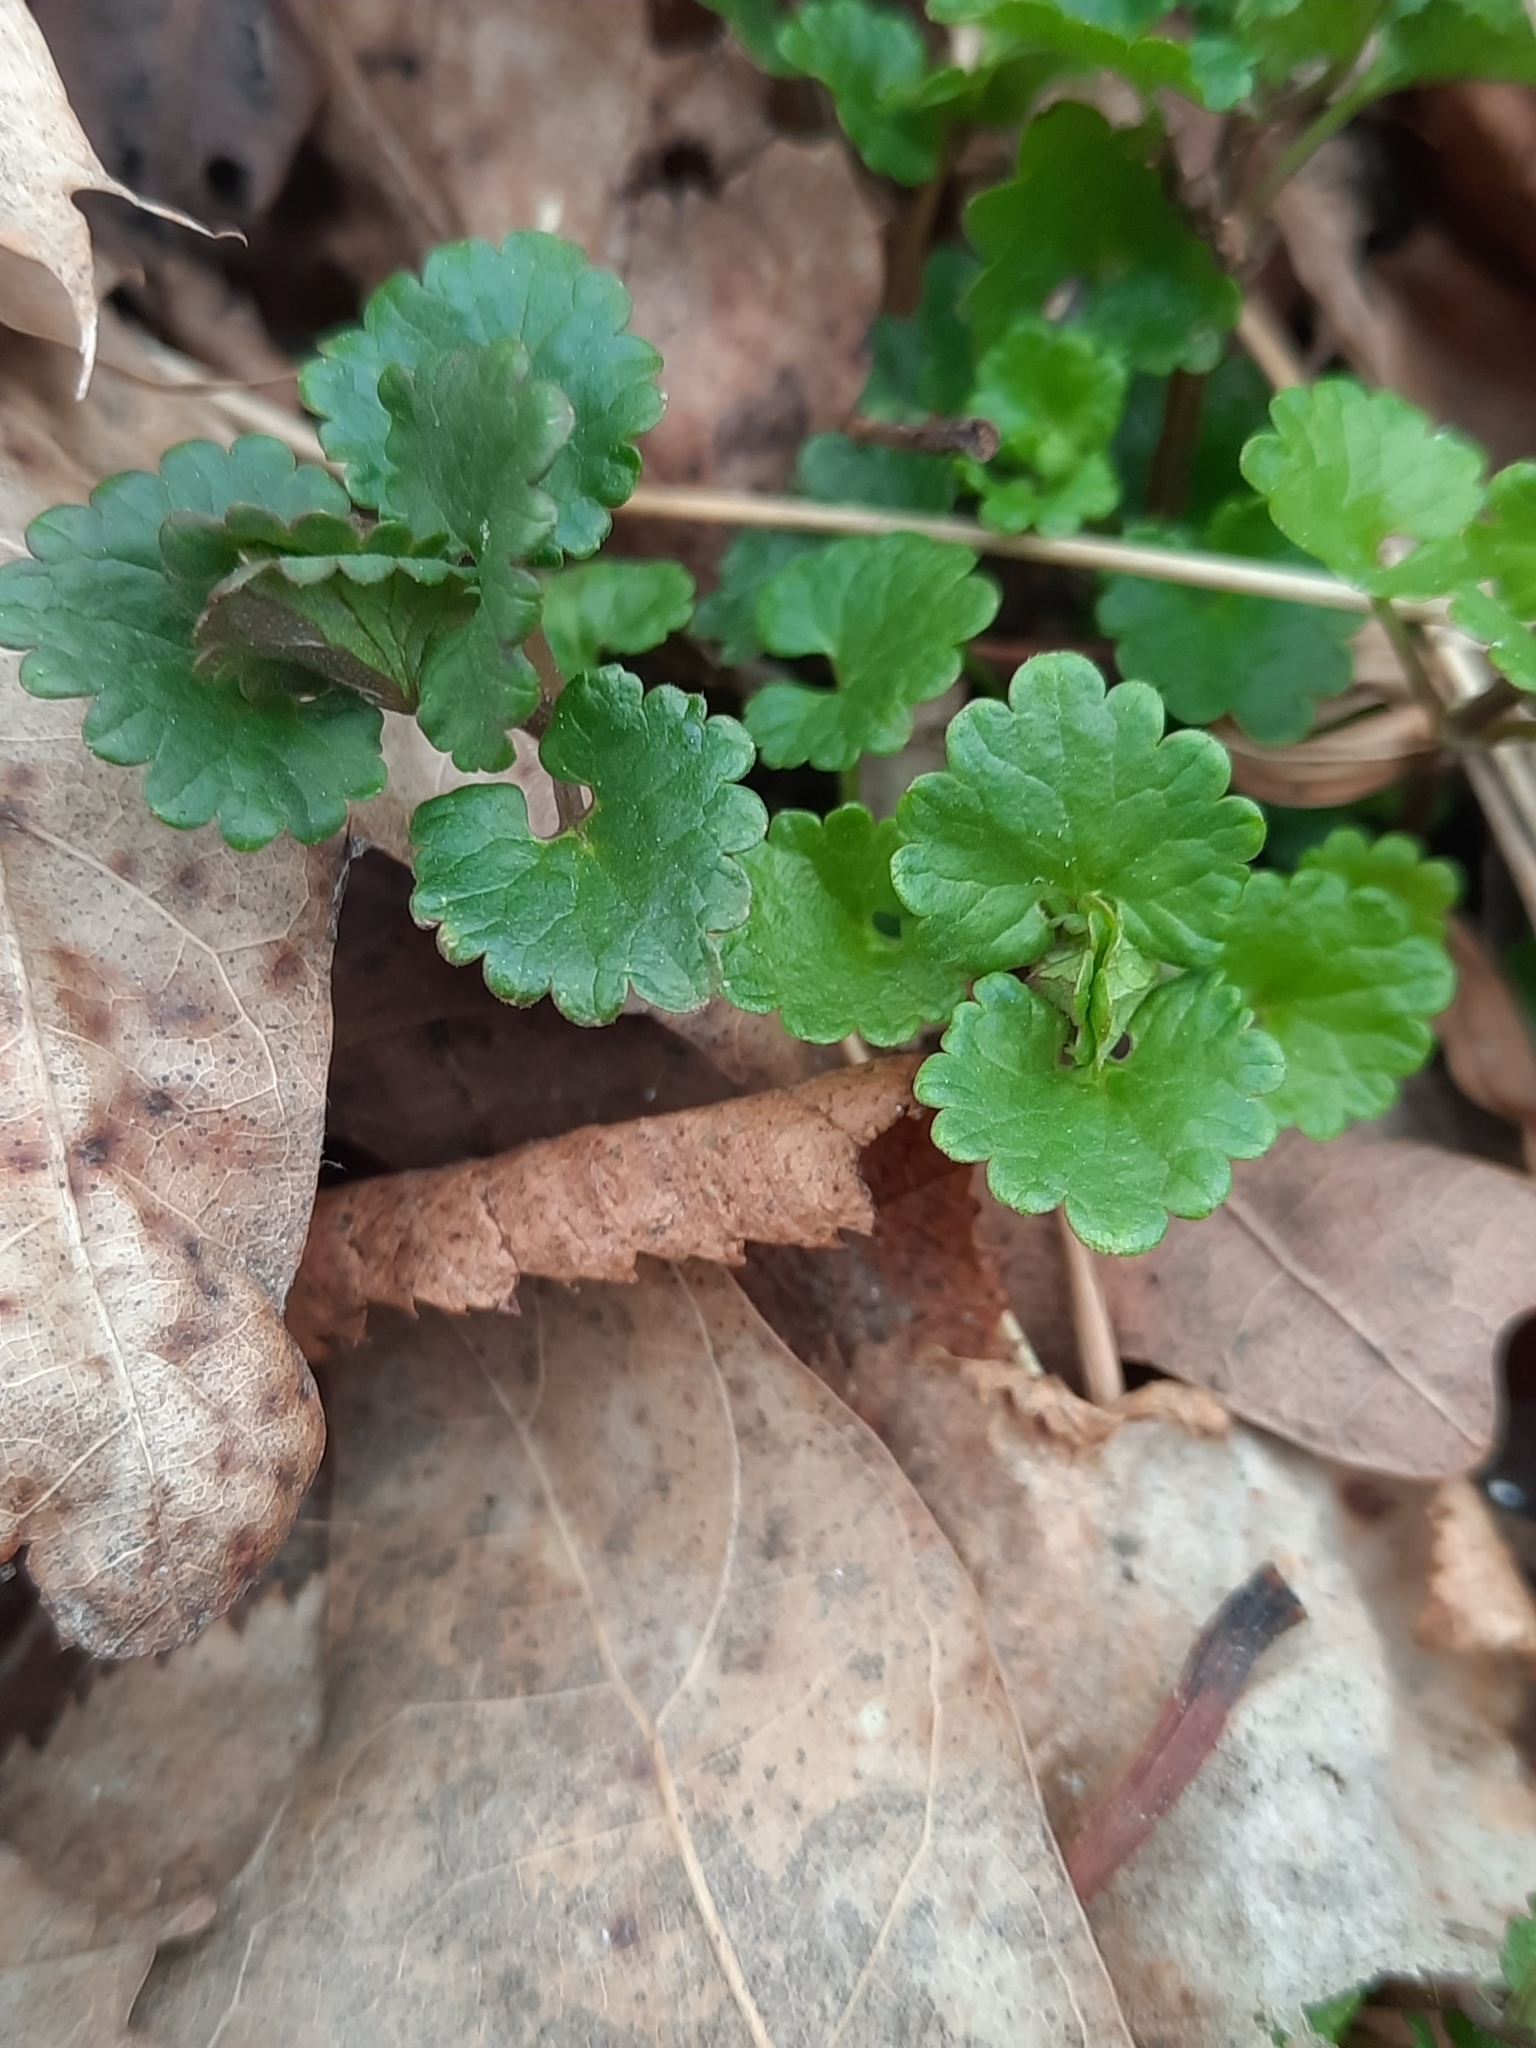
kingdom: Plantae
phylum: Tracheophyta
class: Magnoliopsida
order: Lamiales
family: Lamiaceae
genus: Glechoma
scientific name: Glechoma hederacea
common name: Ground ivy
